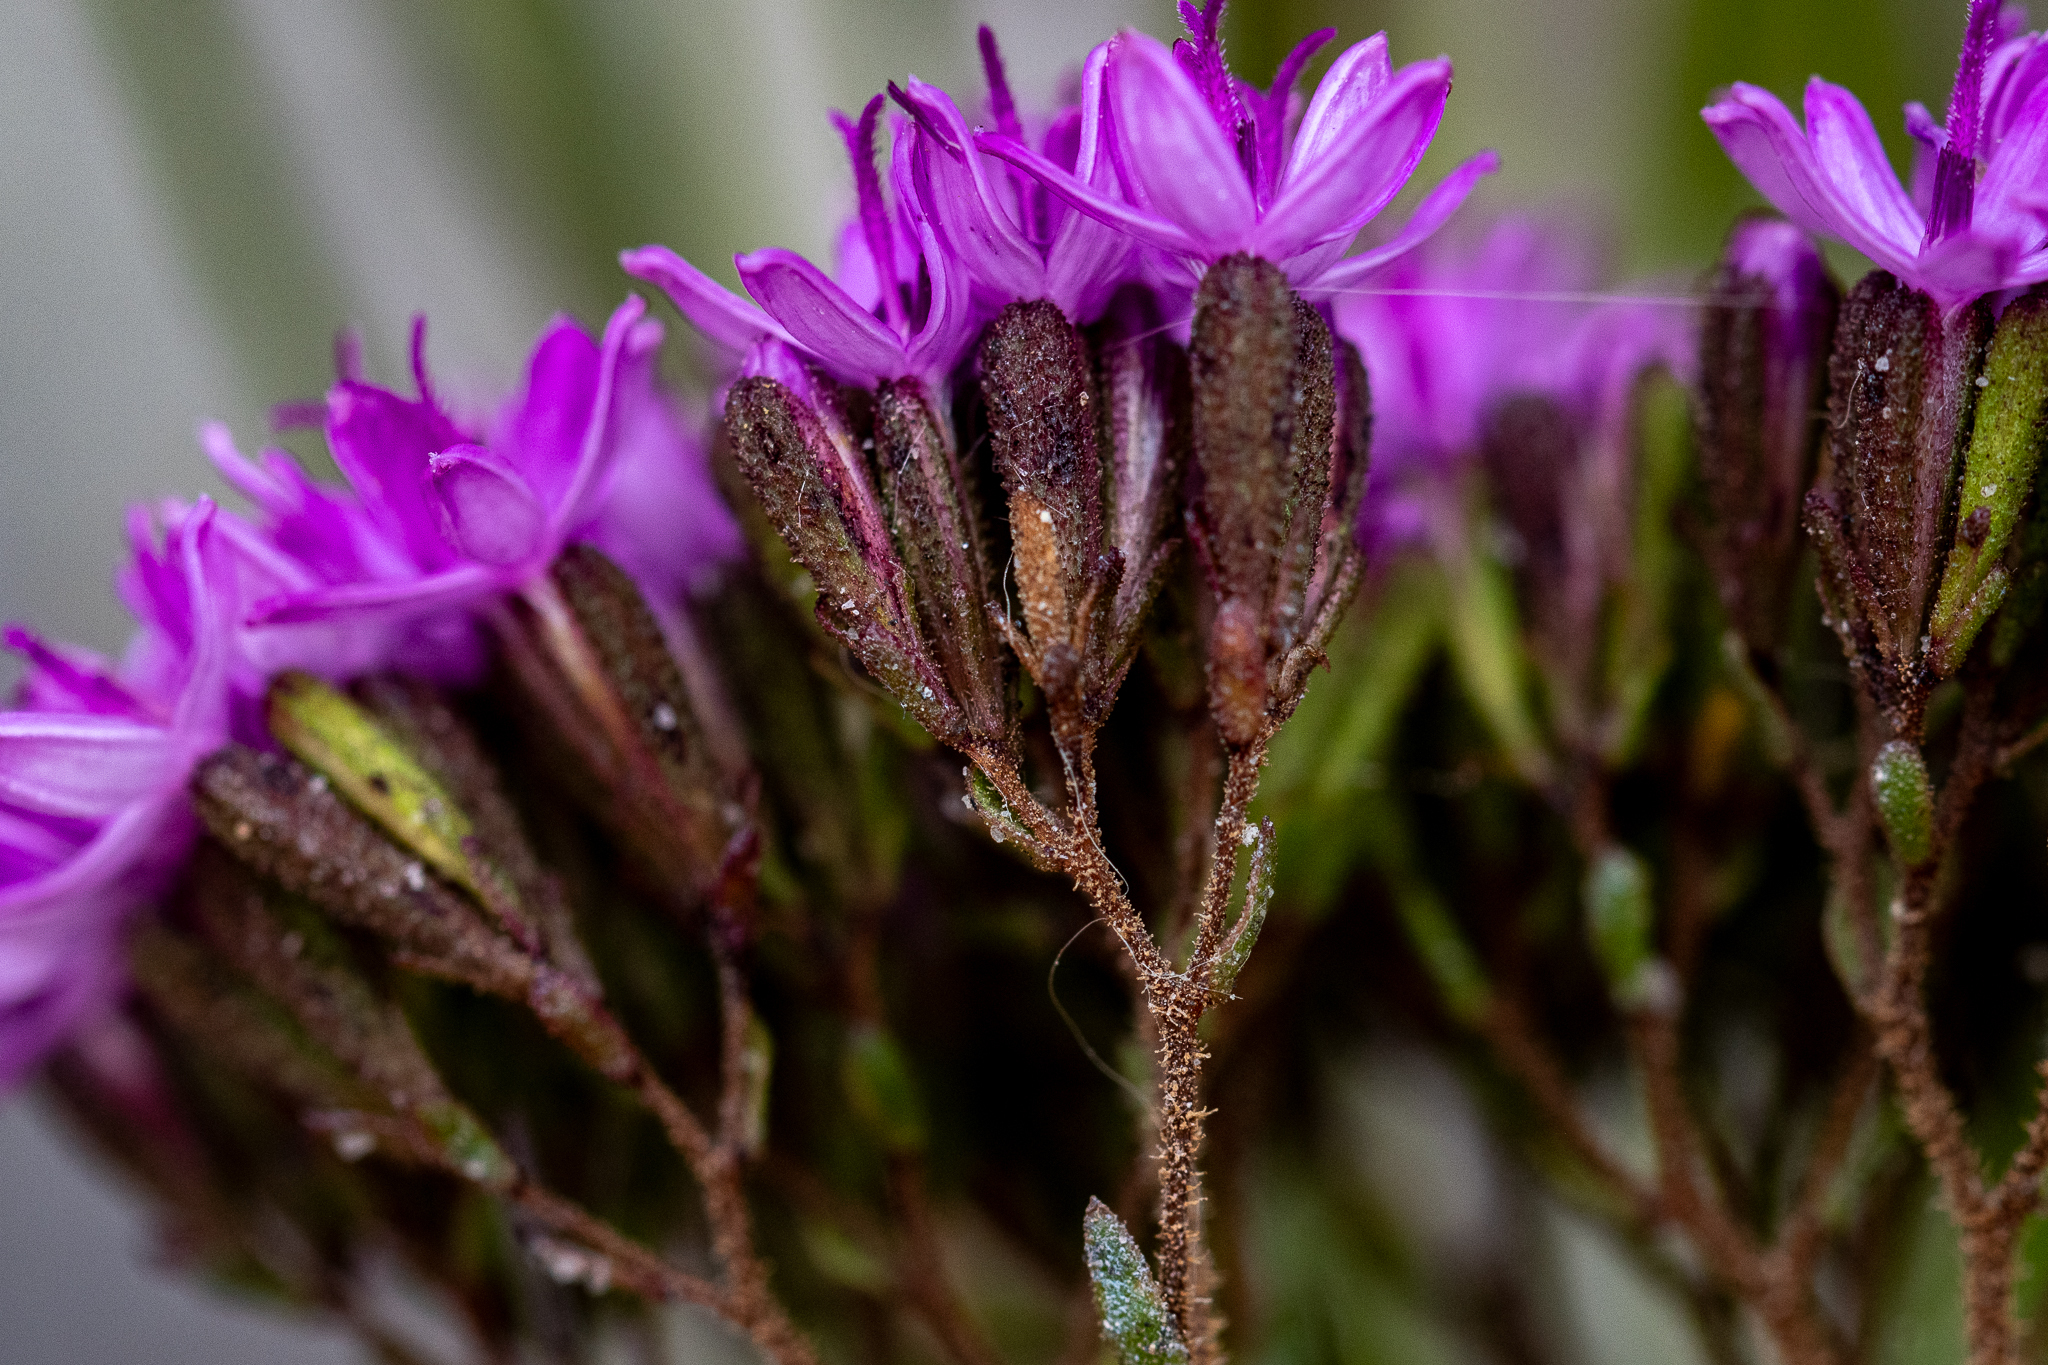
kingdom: Plantae
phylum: Tracheophyta
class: Magnoliopsida
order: Asterales
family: Asteraceae
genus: Corymbium
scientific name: Corymbium africanum
